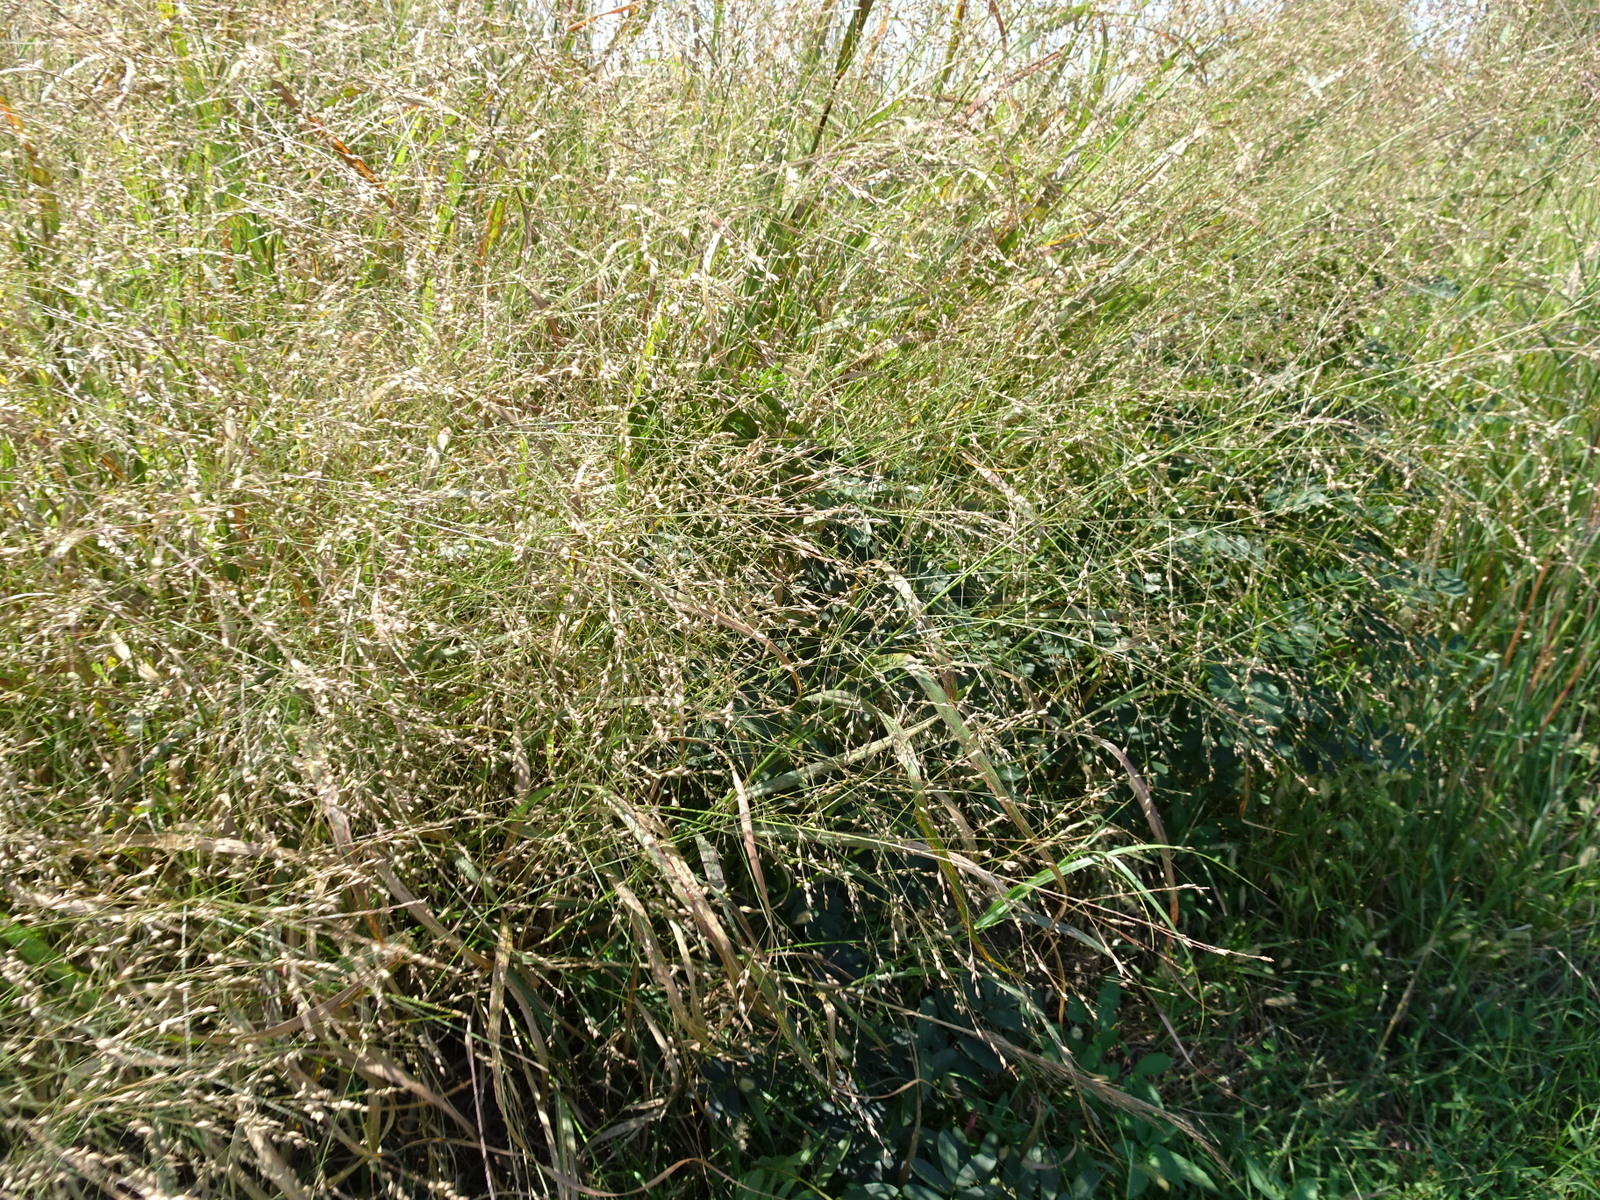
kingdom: Plantae
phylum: Tracheophyta
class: Liliopsida
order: Poales
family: Poaceae
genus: Panicum
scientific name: Panicum virgatum
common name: Switchgrass
